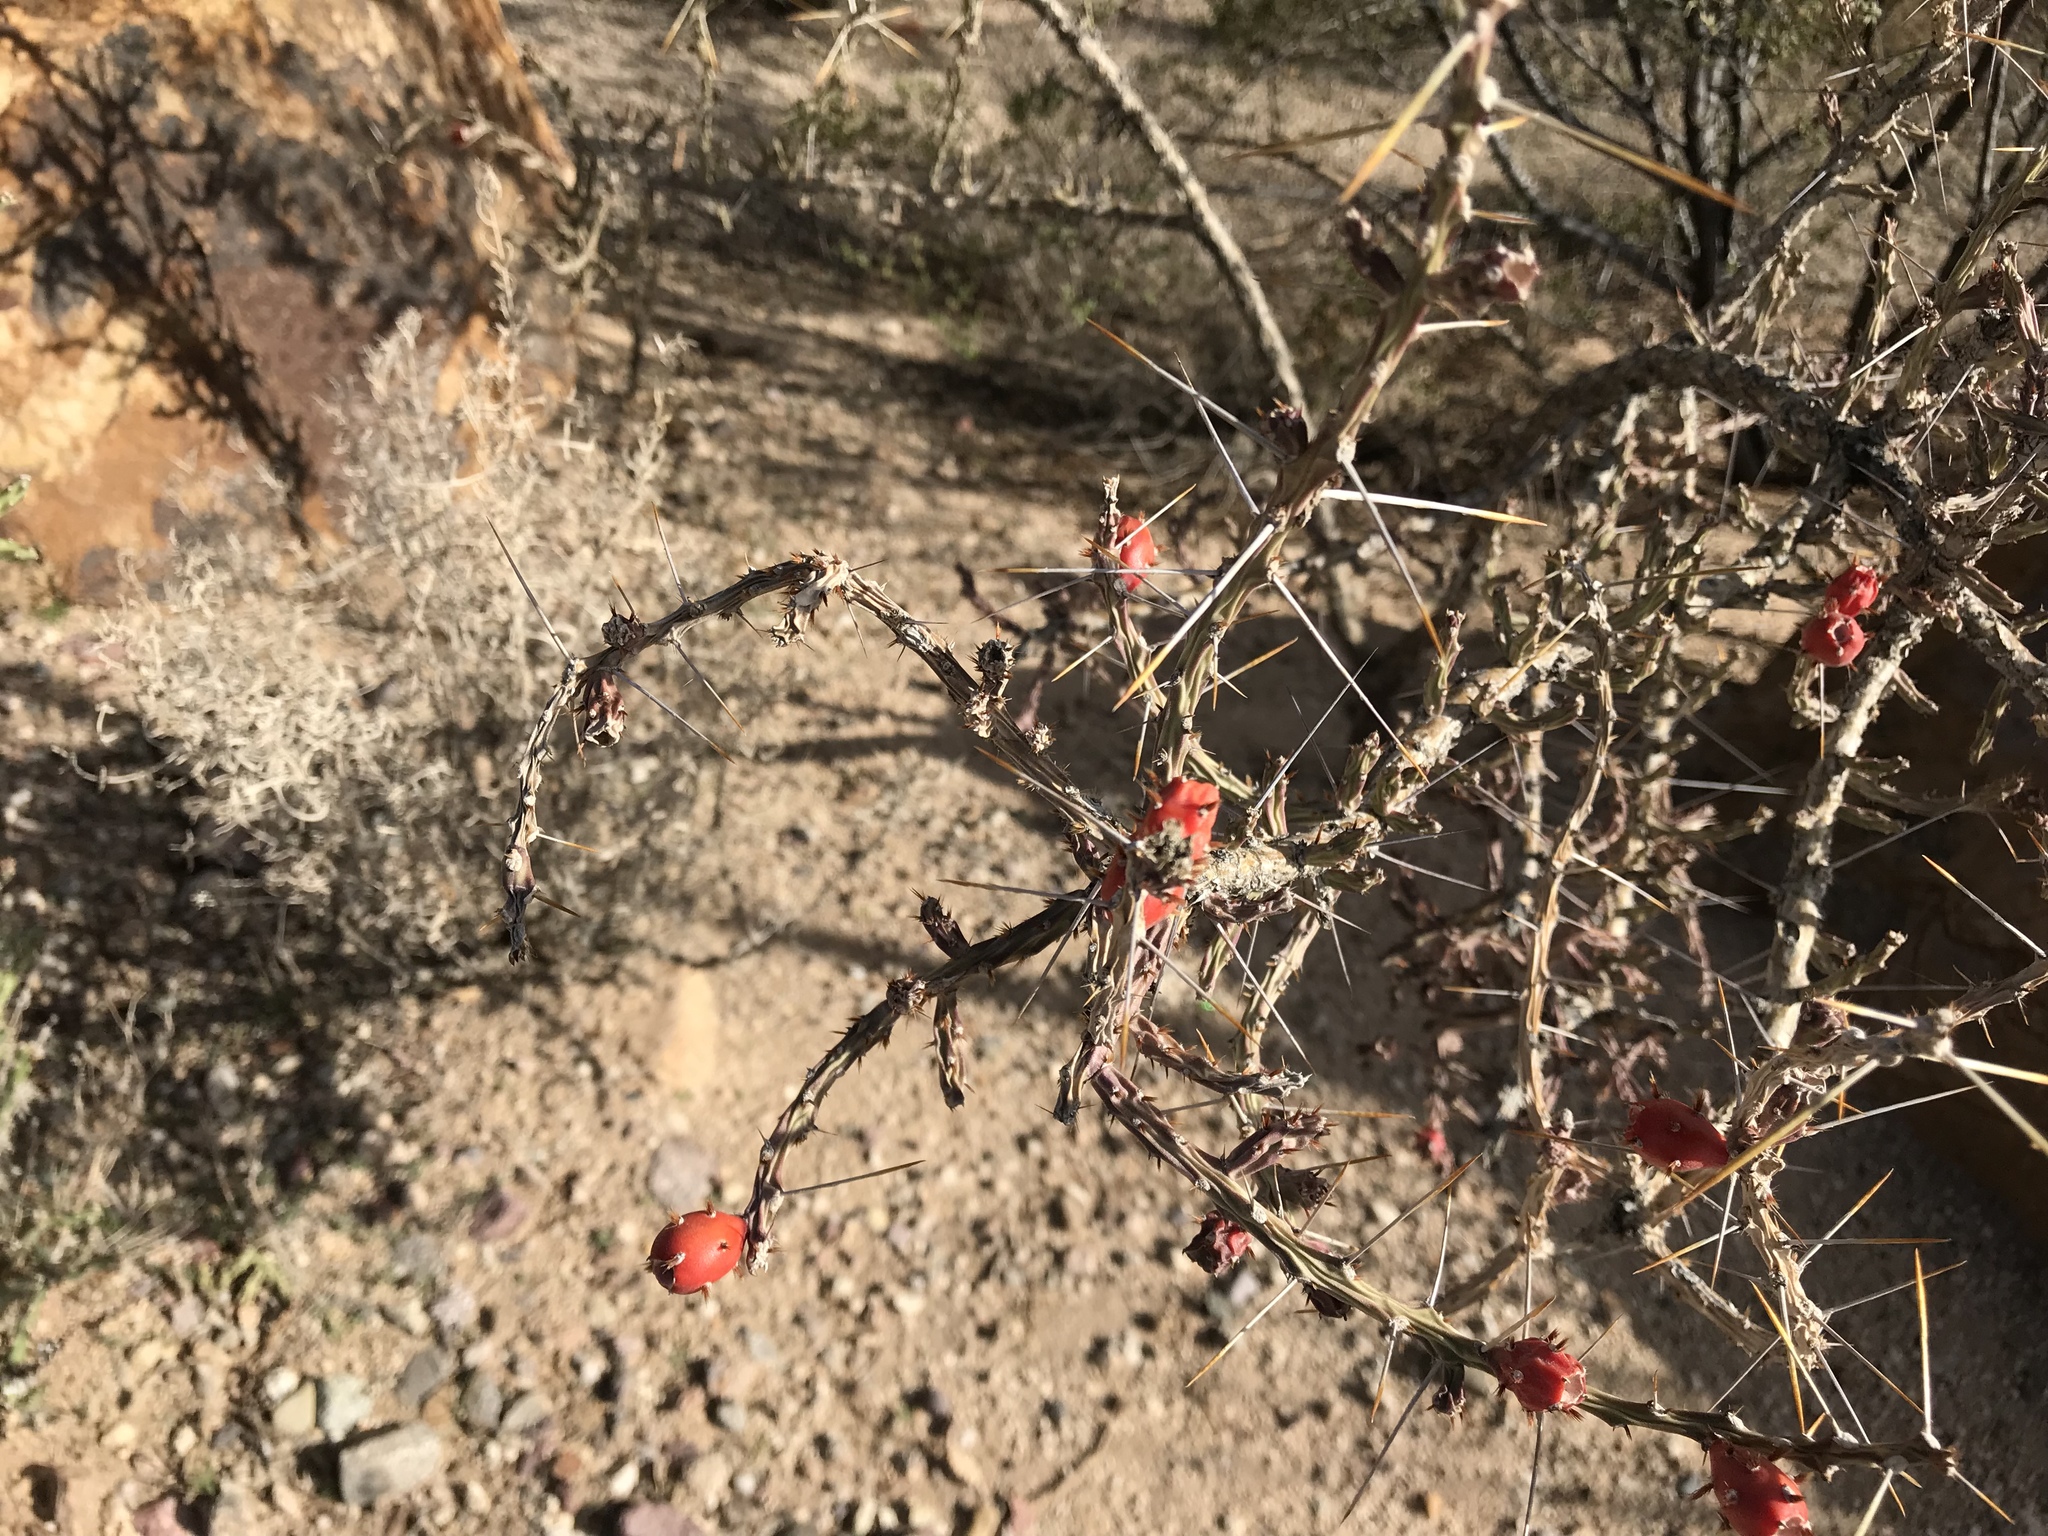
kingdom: Plantae
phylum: Tracheophyta
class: Magnoliopsida
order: Caryophyllales
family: Cactaceae
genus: Cylindropuntia
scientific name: Cylindropuntia leptocaulis
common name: Christmas cactus
